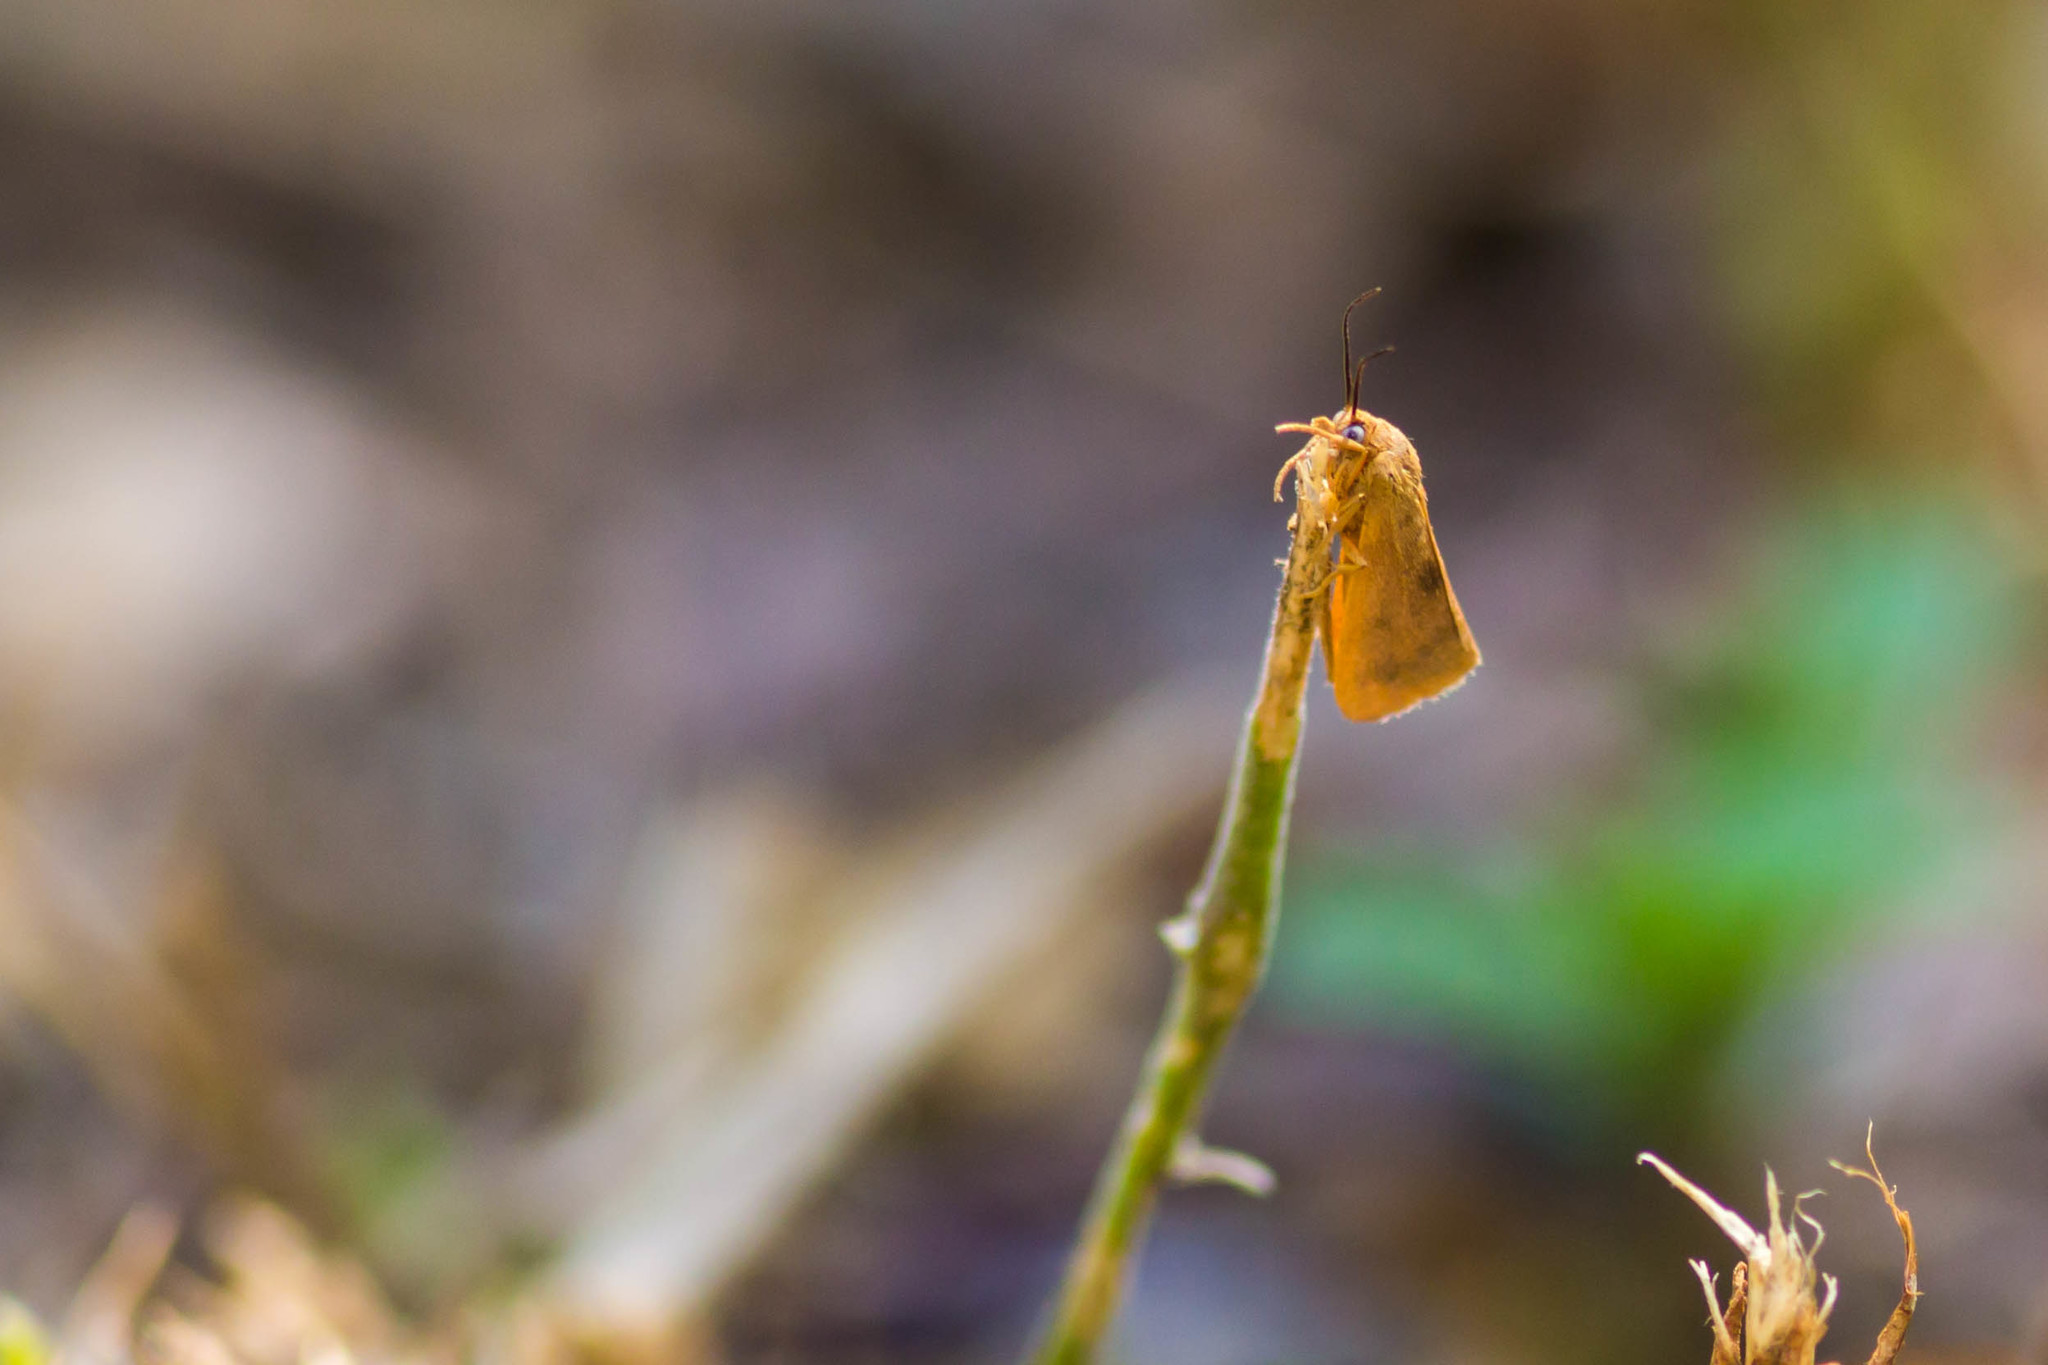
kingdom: Animalia
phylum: Arthropoda
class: Insecta
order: Lepidoptera
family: Erebidae
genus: Virbia
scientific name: Virbia aurantiaca
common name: Orange virbia moth
